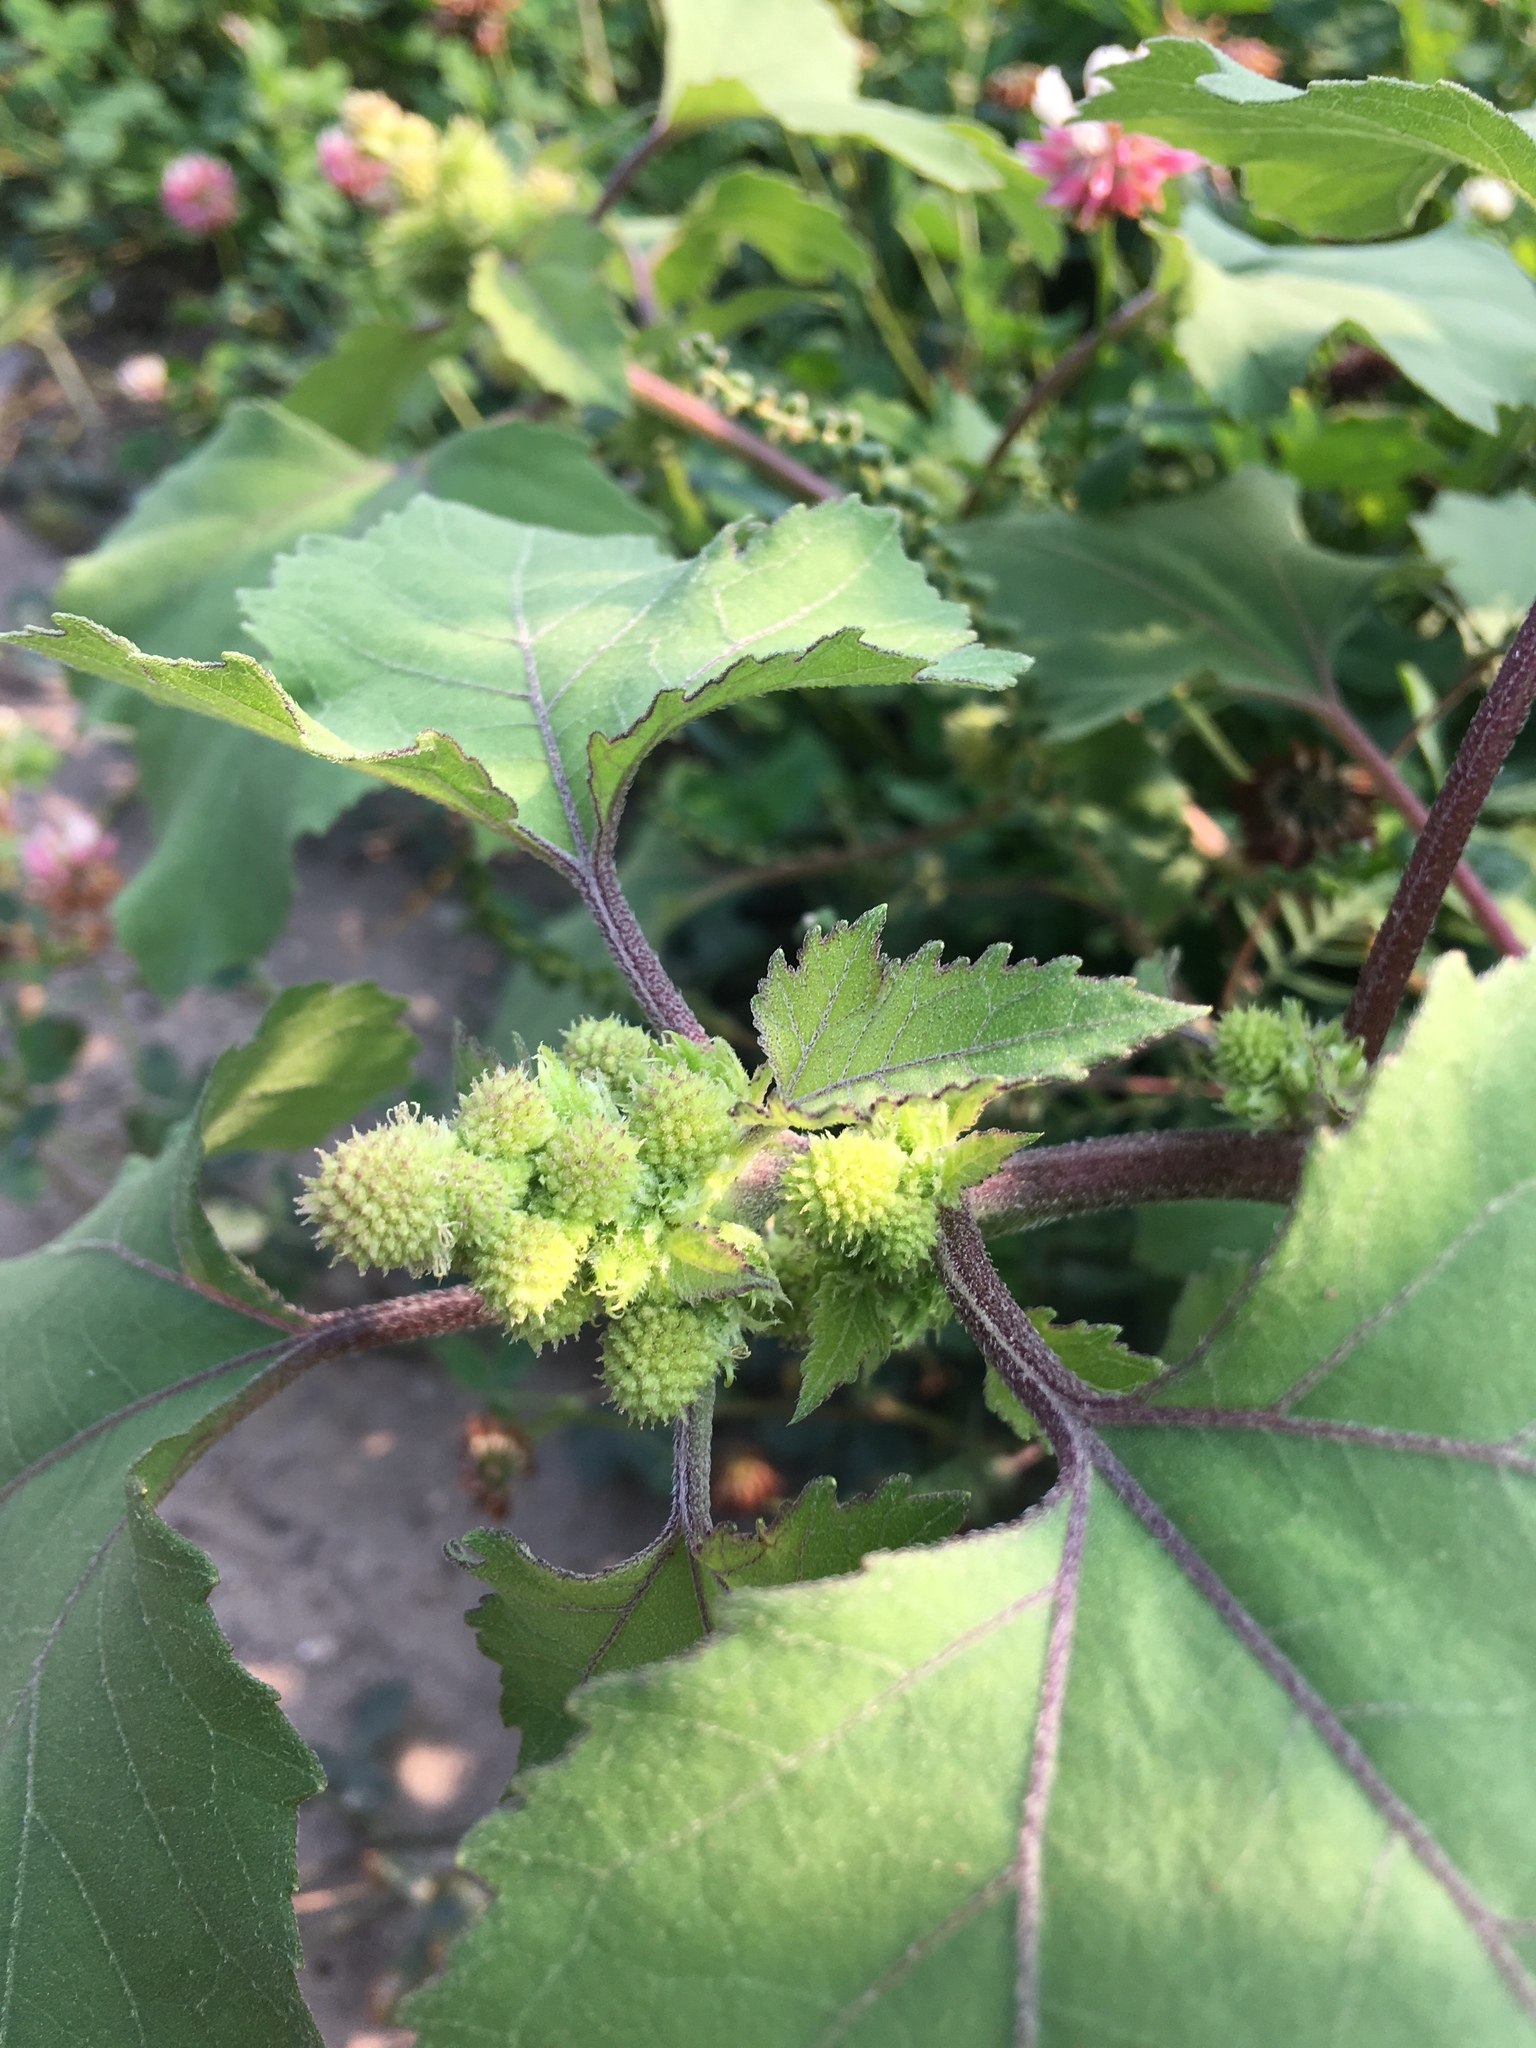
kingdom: Plantae
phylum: Tracheophyta
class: Magnoliopsida
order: Asterales
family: Asteraceae
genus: Xanthium
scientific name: Xanthium strumarium
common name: Rough cocklebur
